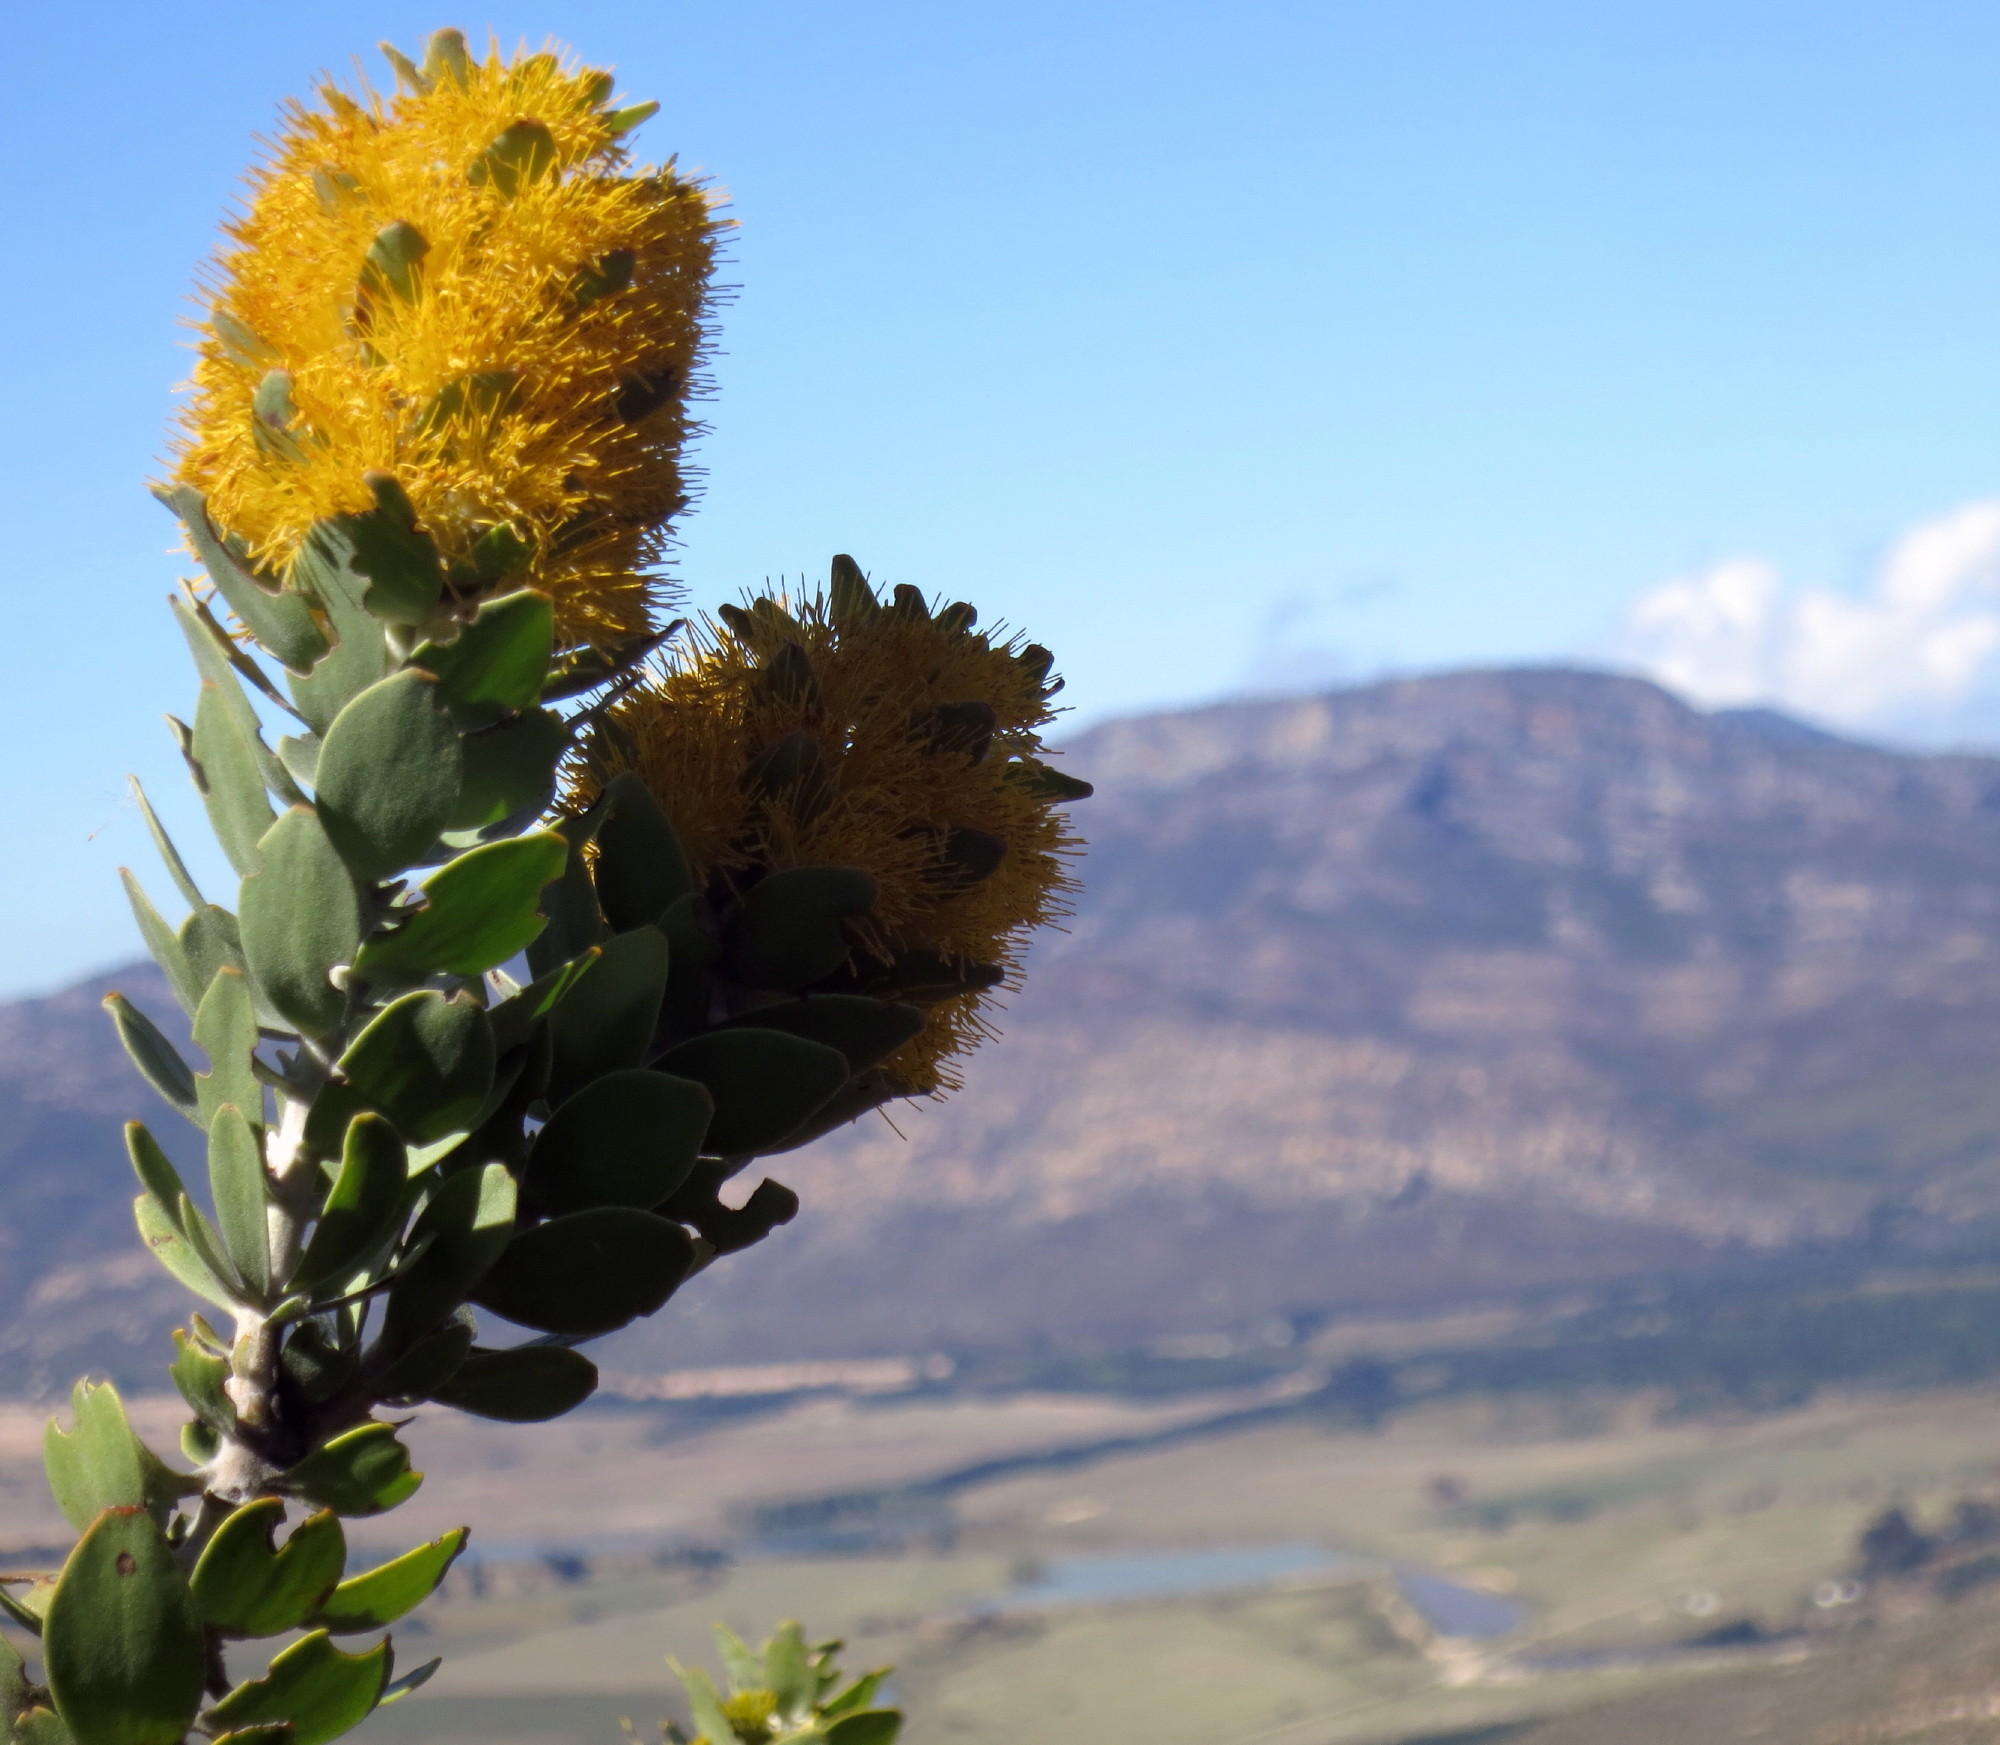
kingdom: Plantae
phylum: Tracheophyta
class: Magnoliopsida
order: Proteales
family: Proteaceae
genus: Mimetes
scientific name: Mimetes chrysanthus
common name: Golden pagoda
